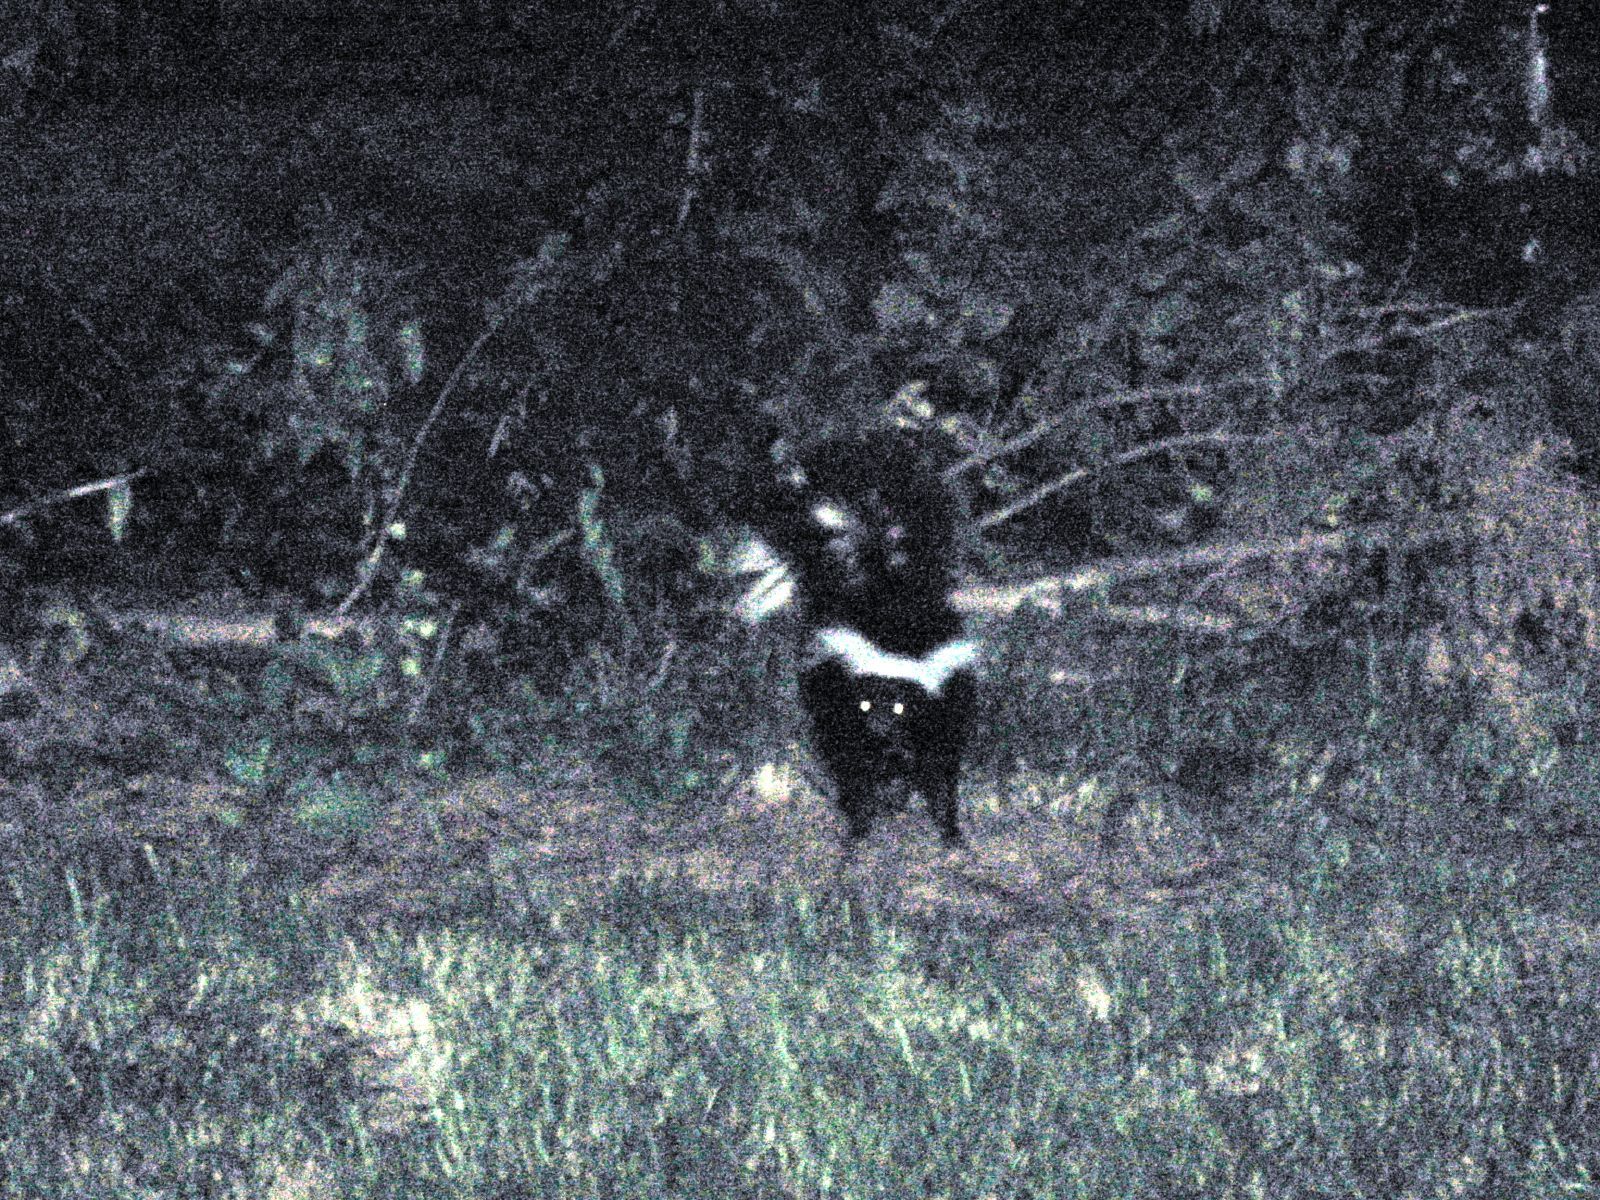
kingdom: Animalia
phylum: Chordata
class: Mammalia
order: Carnivora
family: Mephitidae
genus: Mephitis
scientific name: Mephitis mephitis
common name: Striped skunk
